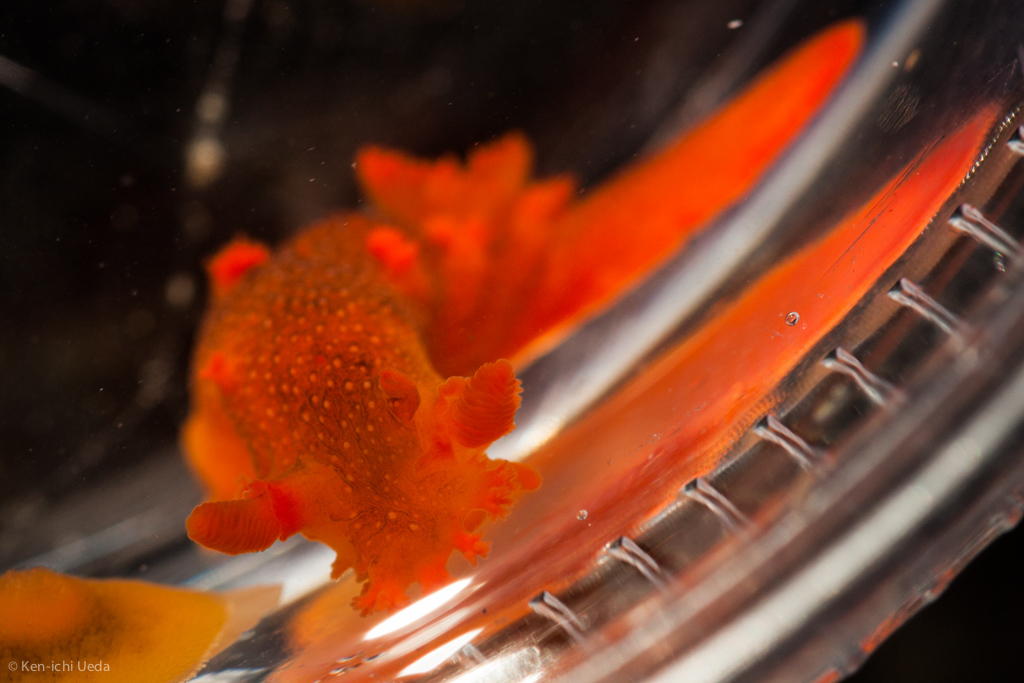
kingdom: Animalia
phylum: Mollusca
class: Gastropoda
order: Nudibranchia
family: Polyceridae
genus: Triopha
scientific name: Triopha maculata
